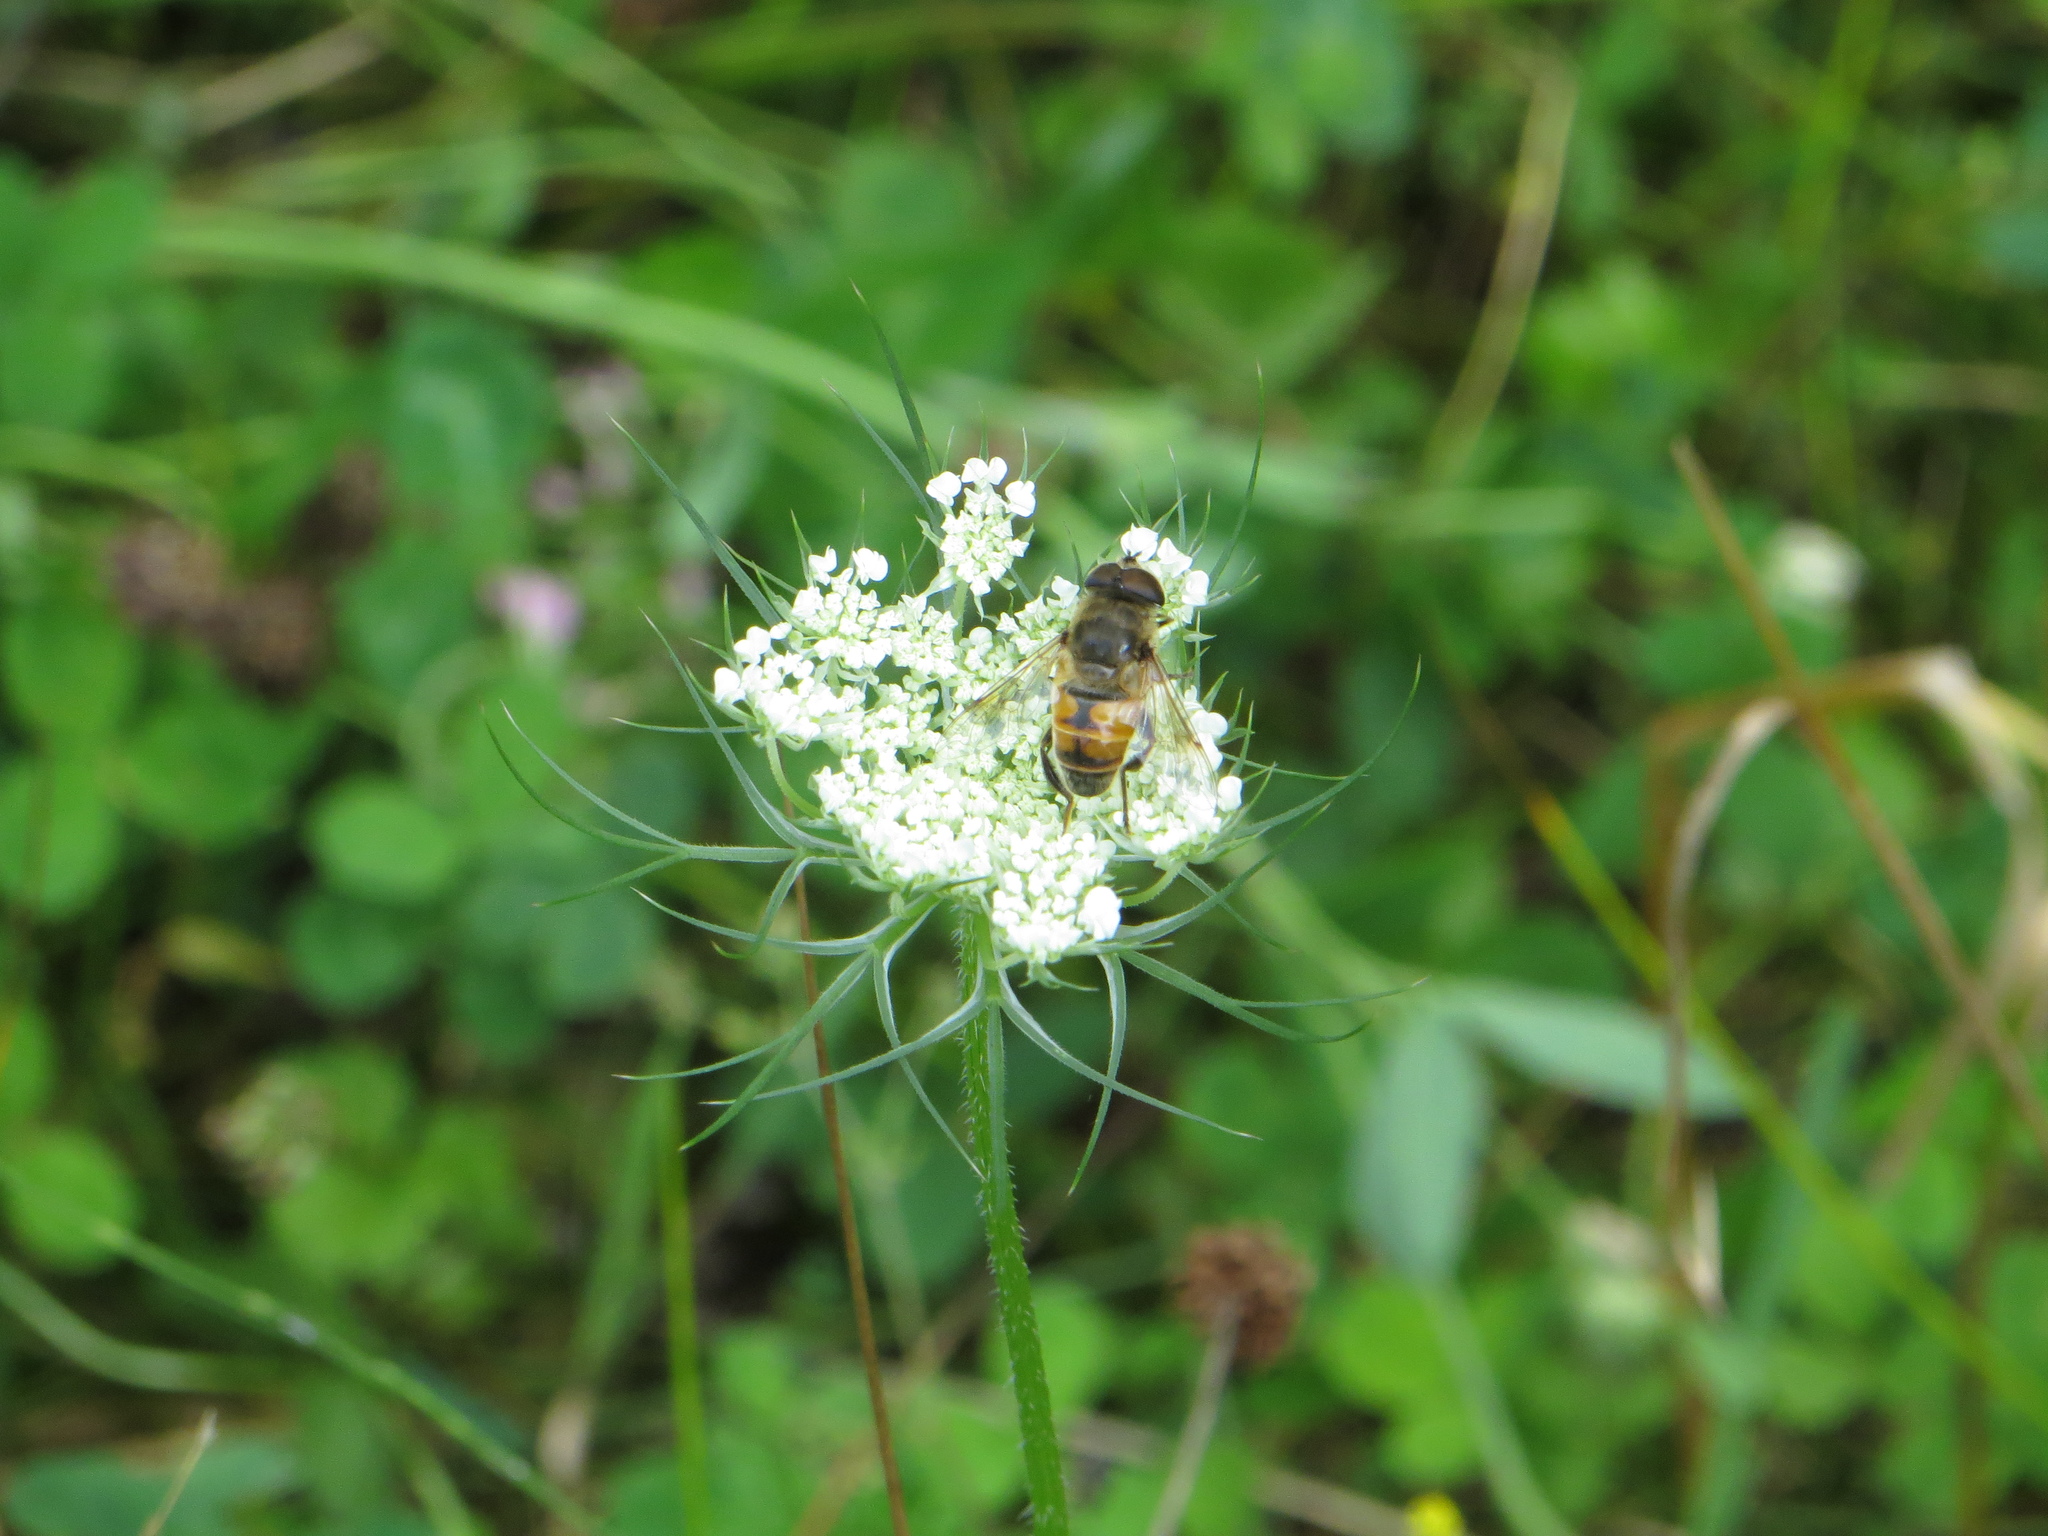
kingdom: Animalia
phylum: Arthropoda
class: Insecta
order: Diptera
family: Syrphidae
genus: Eristalis
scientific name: Eristalis tenax
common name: Drone fly
